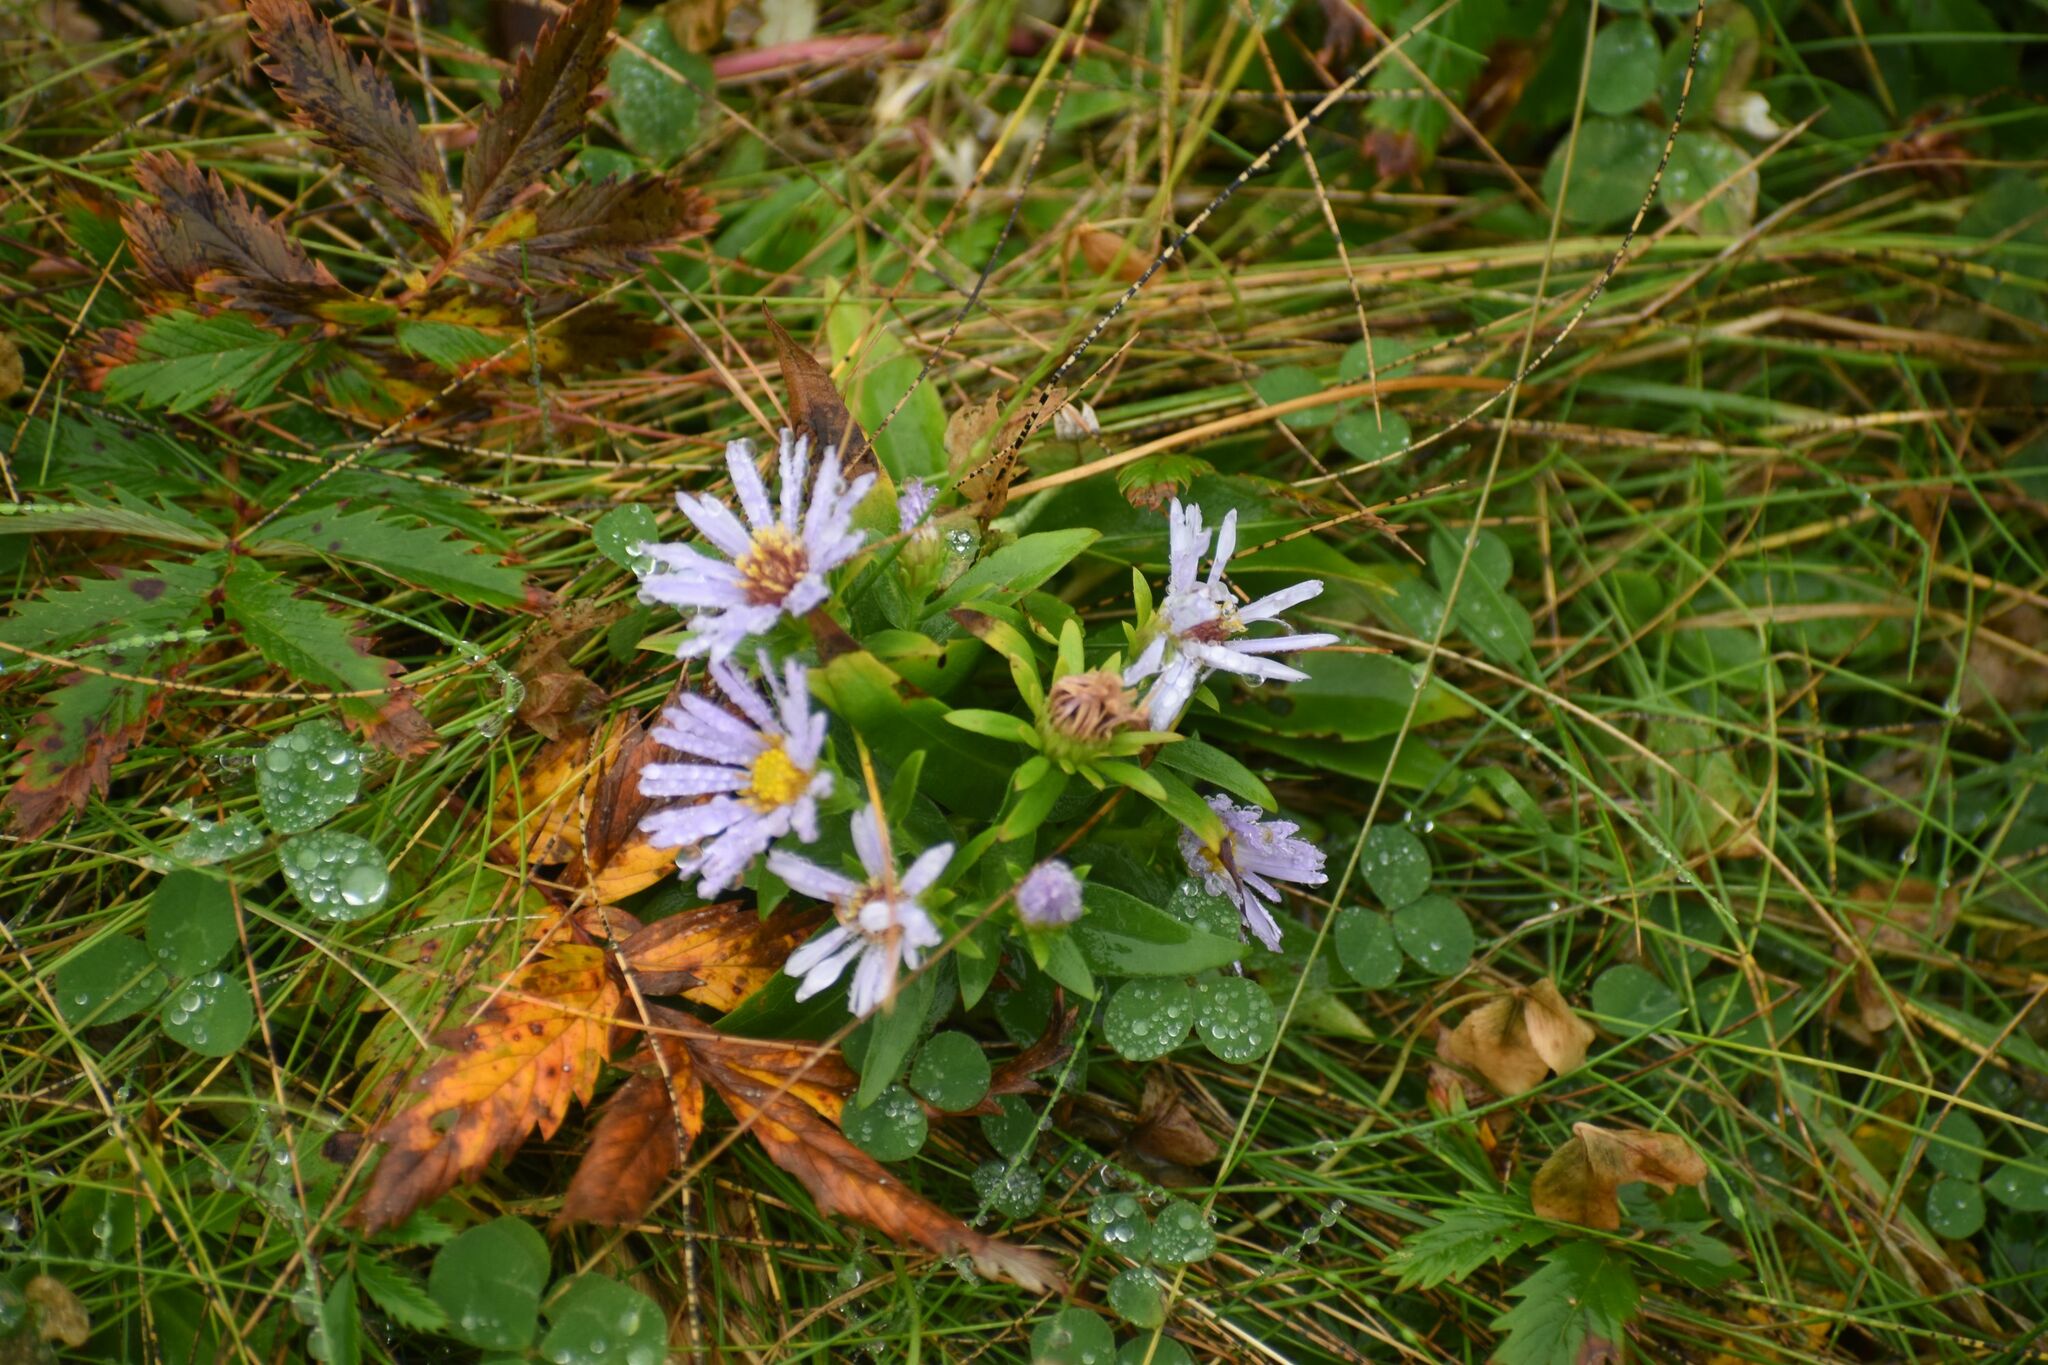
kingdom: Plantae
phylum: Tracheophyta
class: Magnoliopsida
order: Asterales
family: Asteraceae
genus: Symphyotrichum
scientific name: Symphyotrichum novi-belgii
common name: Michaelmas daisy
